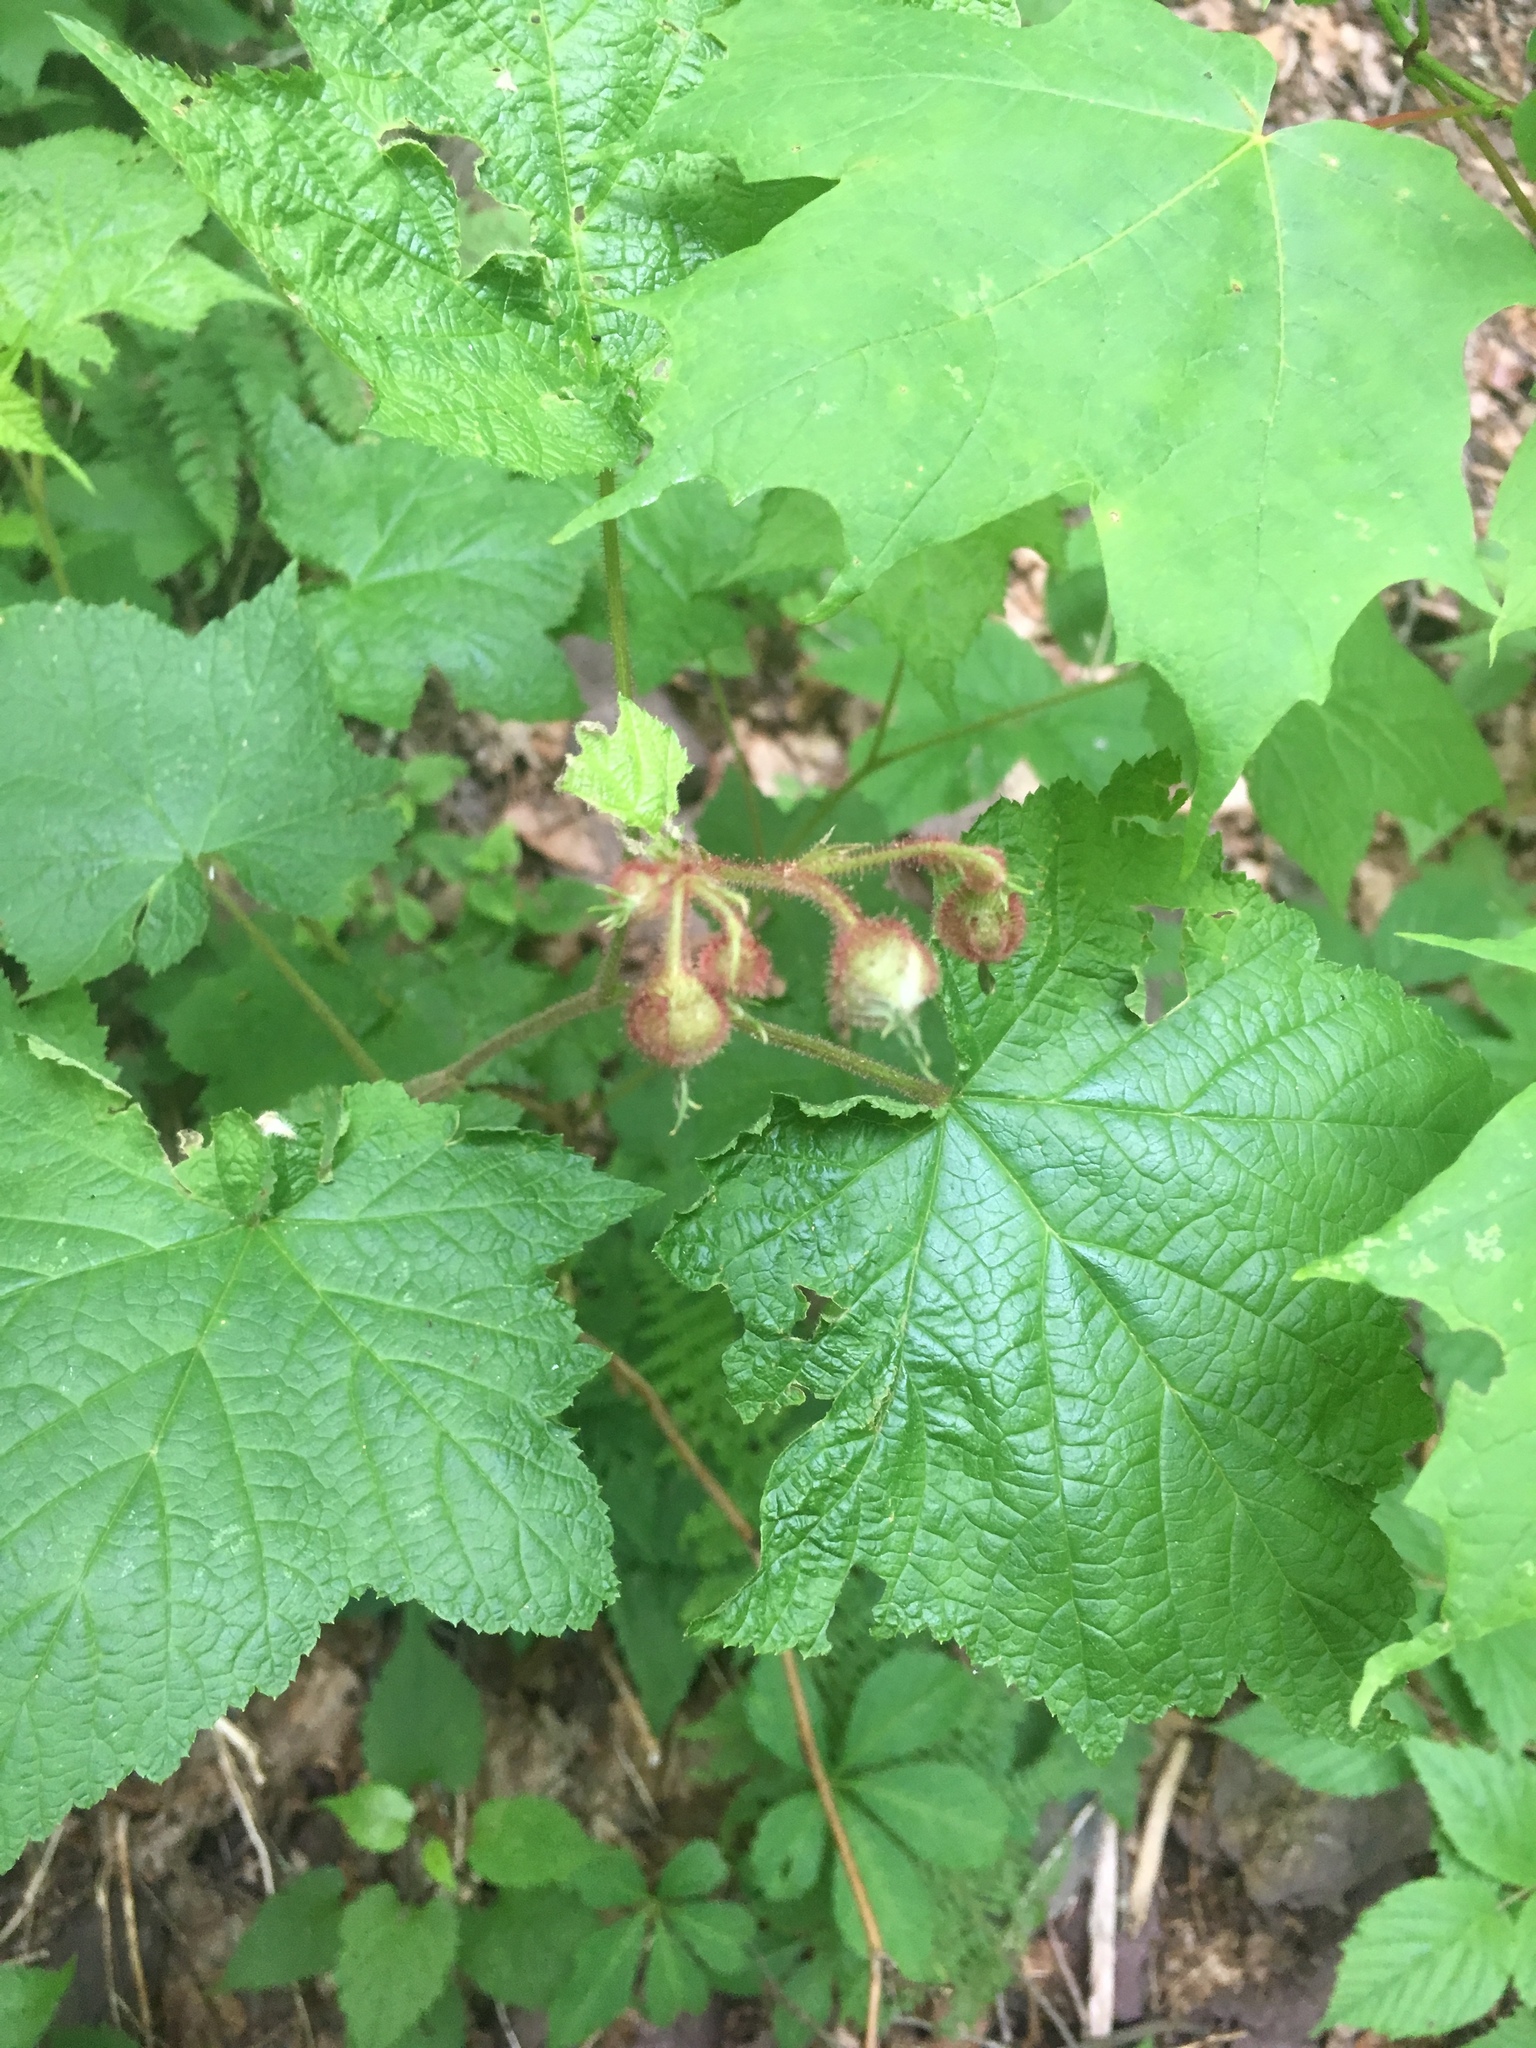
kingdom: Plantae
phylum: Tracheophyta
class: Magnoliopsida
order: Rosales
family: Rosaceae
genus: Rubus
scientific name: Rubus odoratus
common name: Purple-flowered raspberry
